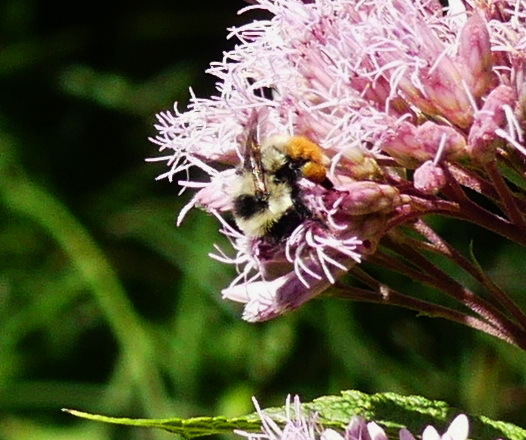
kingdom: Animalia
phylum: Arthropoda
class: Insecta
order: Hymenoptera
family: Apidae
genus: Bombus
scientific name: Bombus rufocinctus
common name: Red-belted bumble bee
